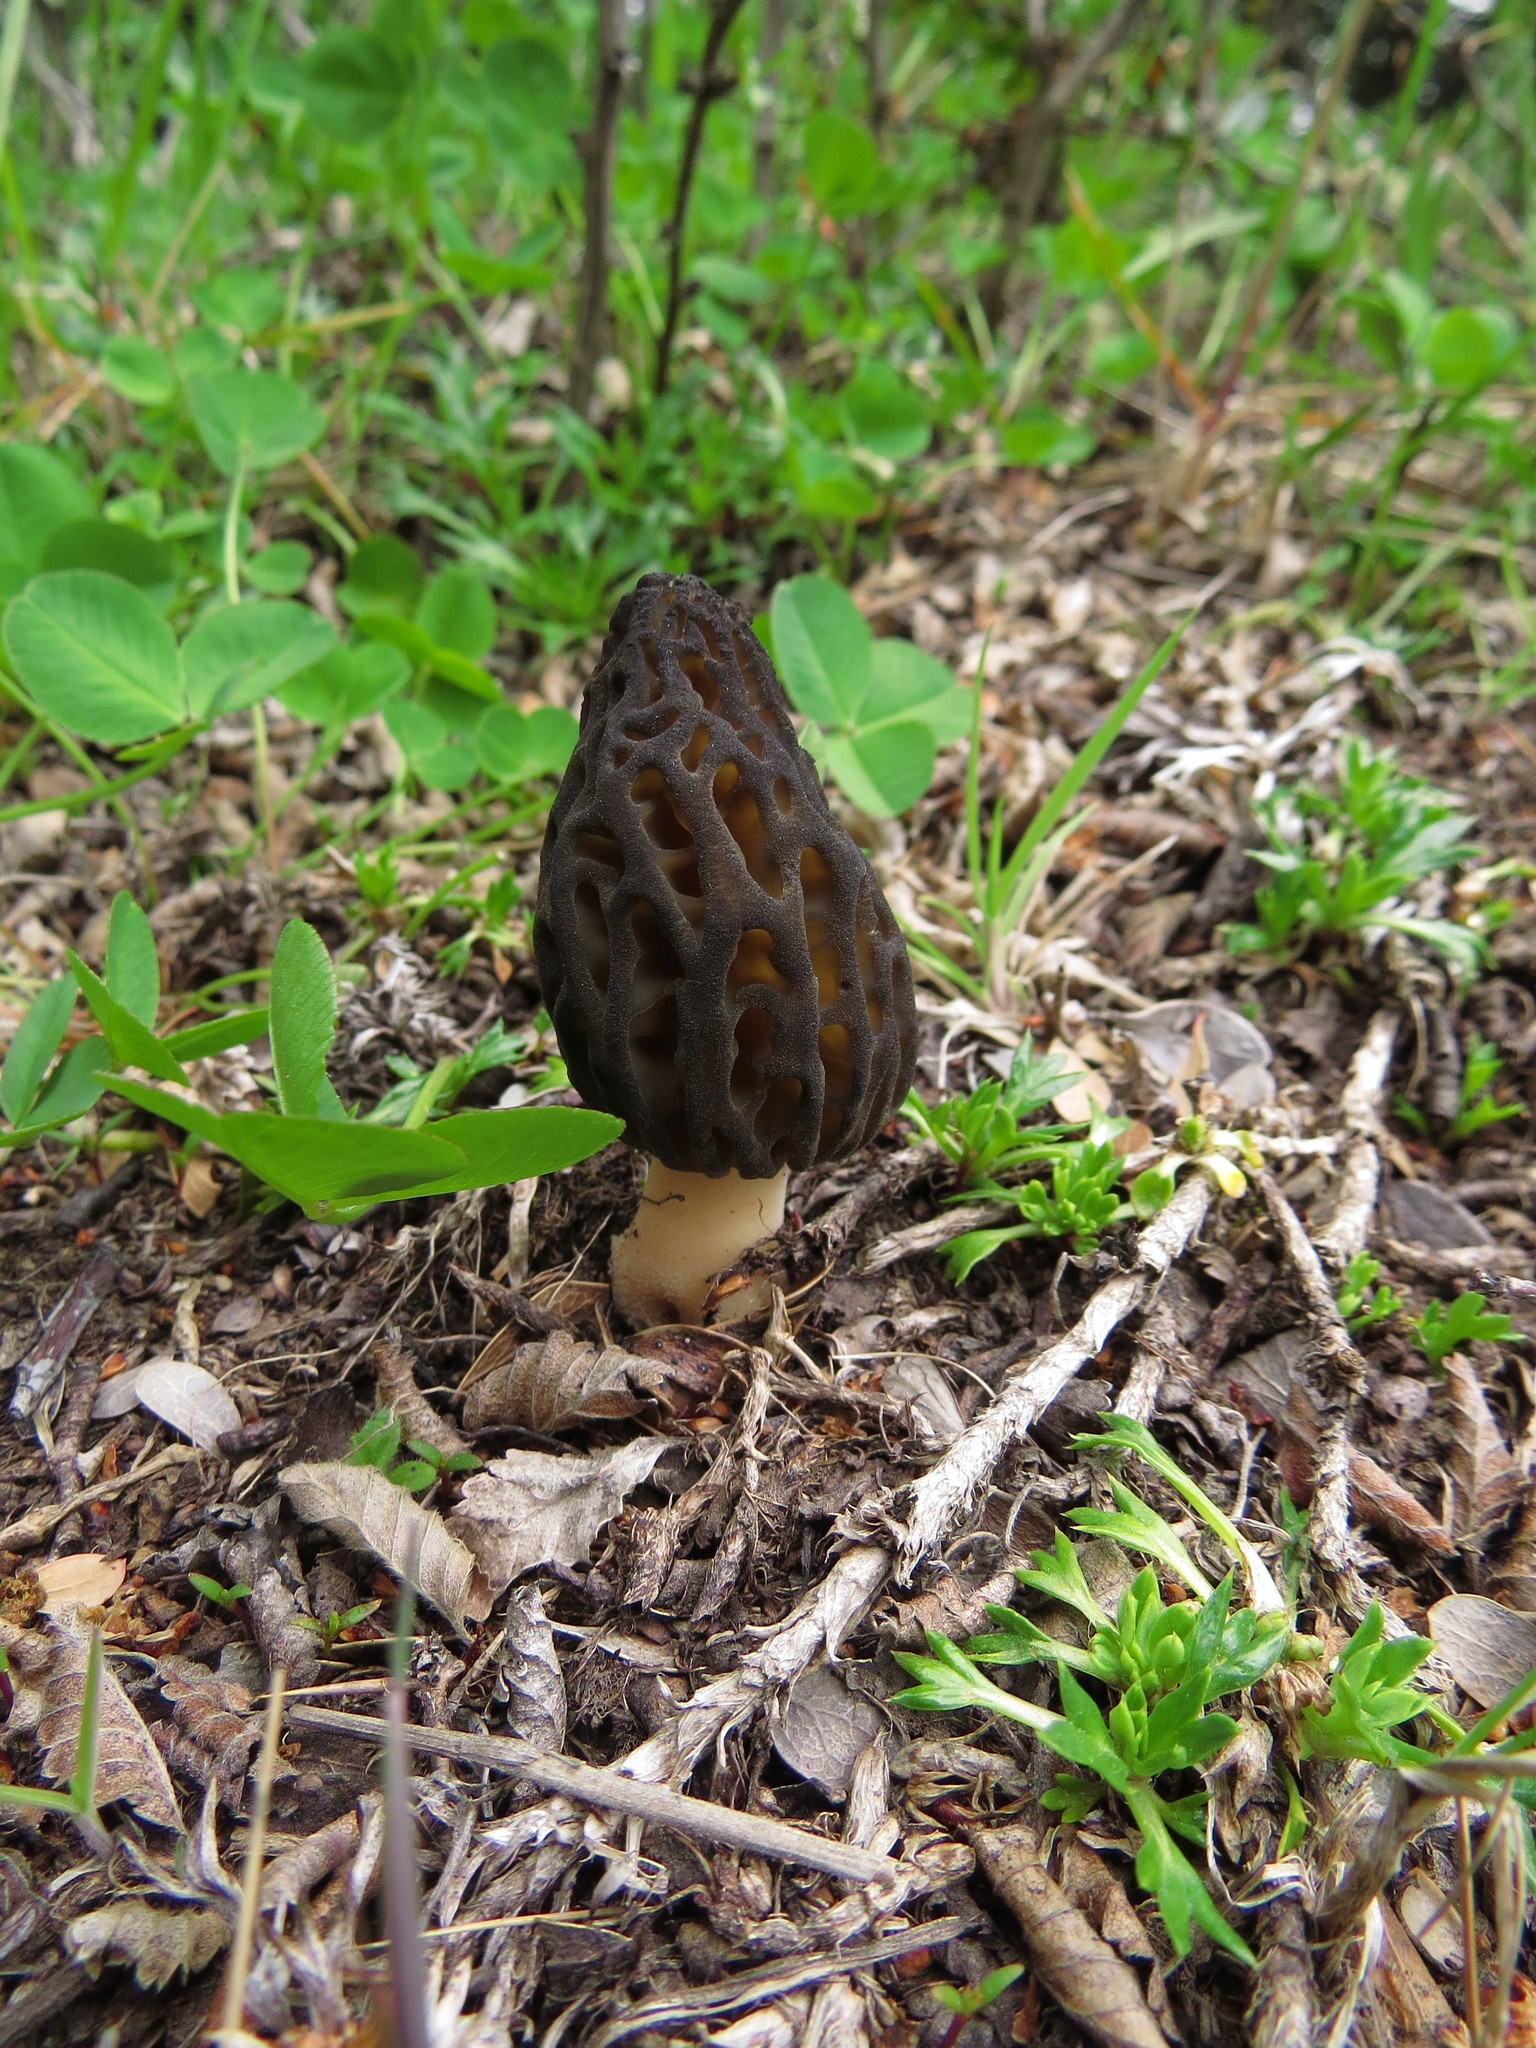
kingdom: Fungi
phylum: Ascomycota
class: Pezizomycetes
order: Pezizales
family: Morchellaceae
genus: Morchella
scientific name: Morchella
